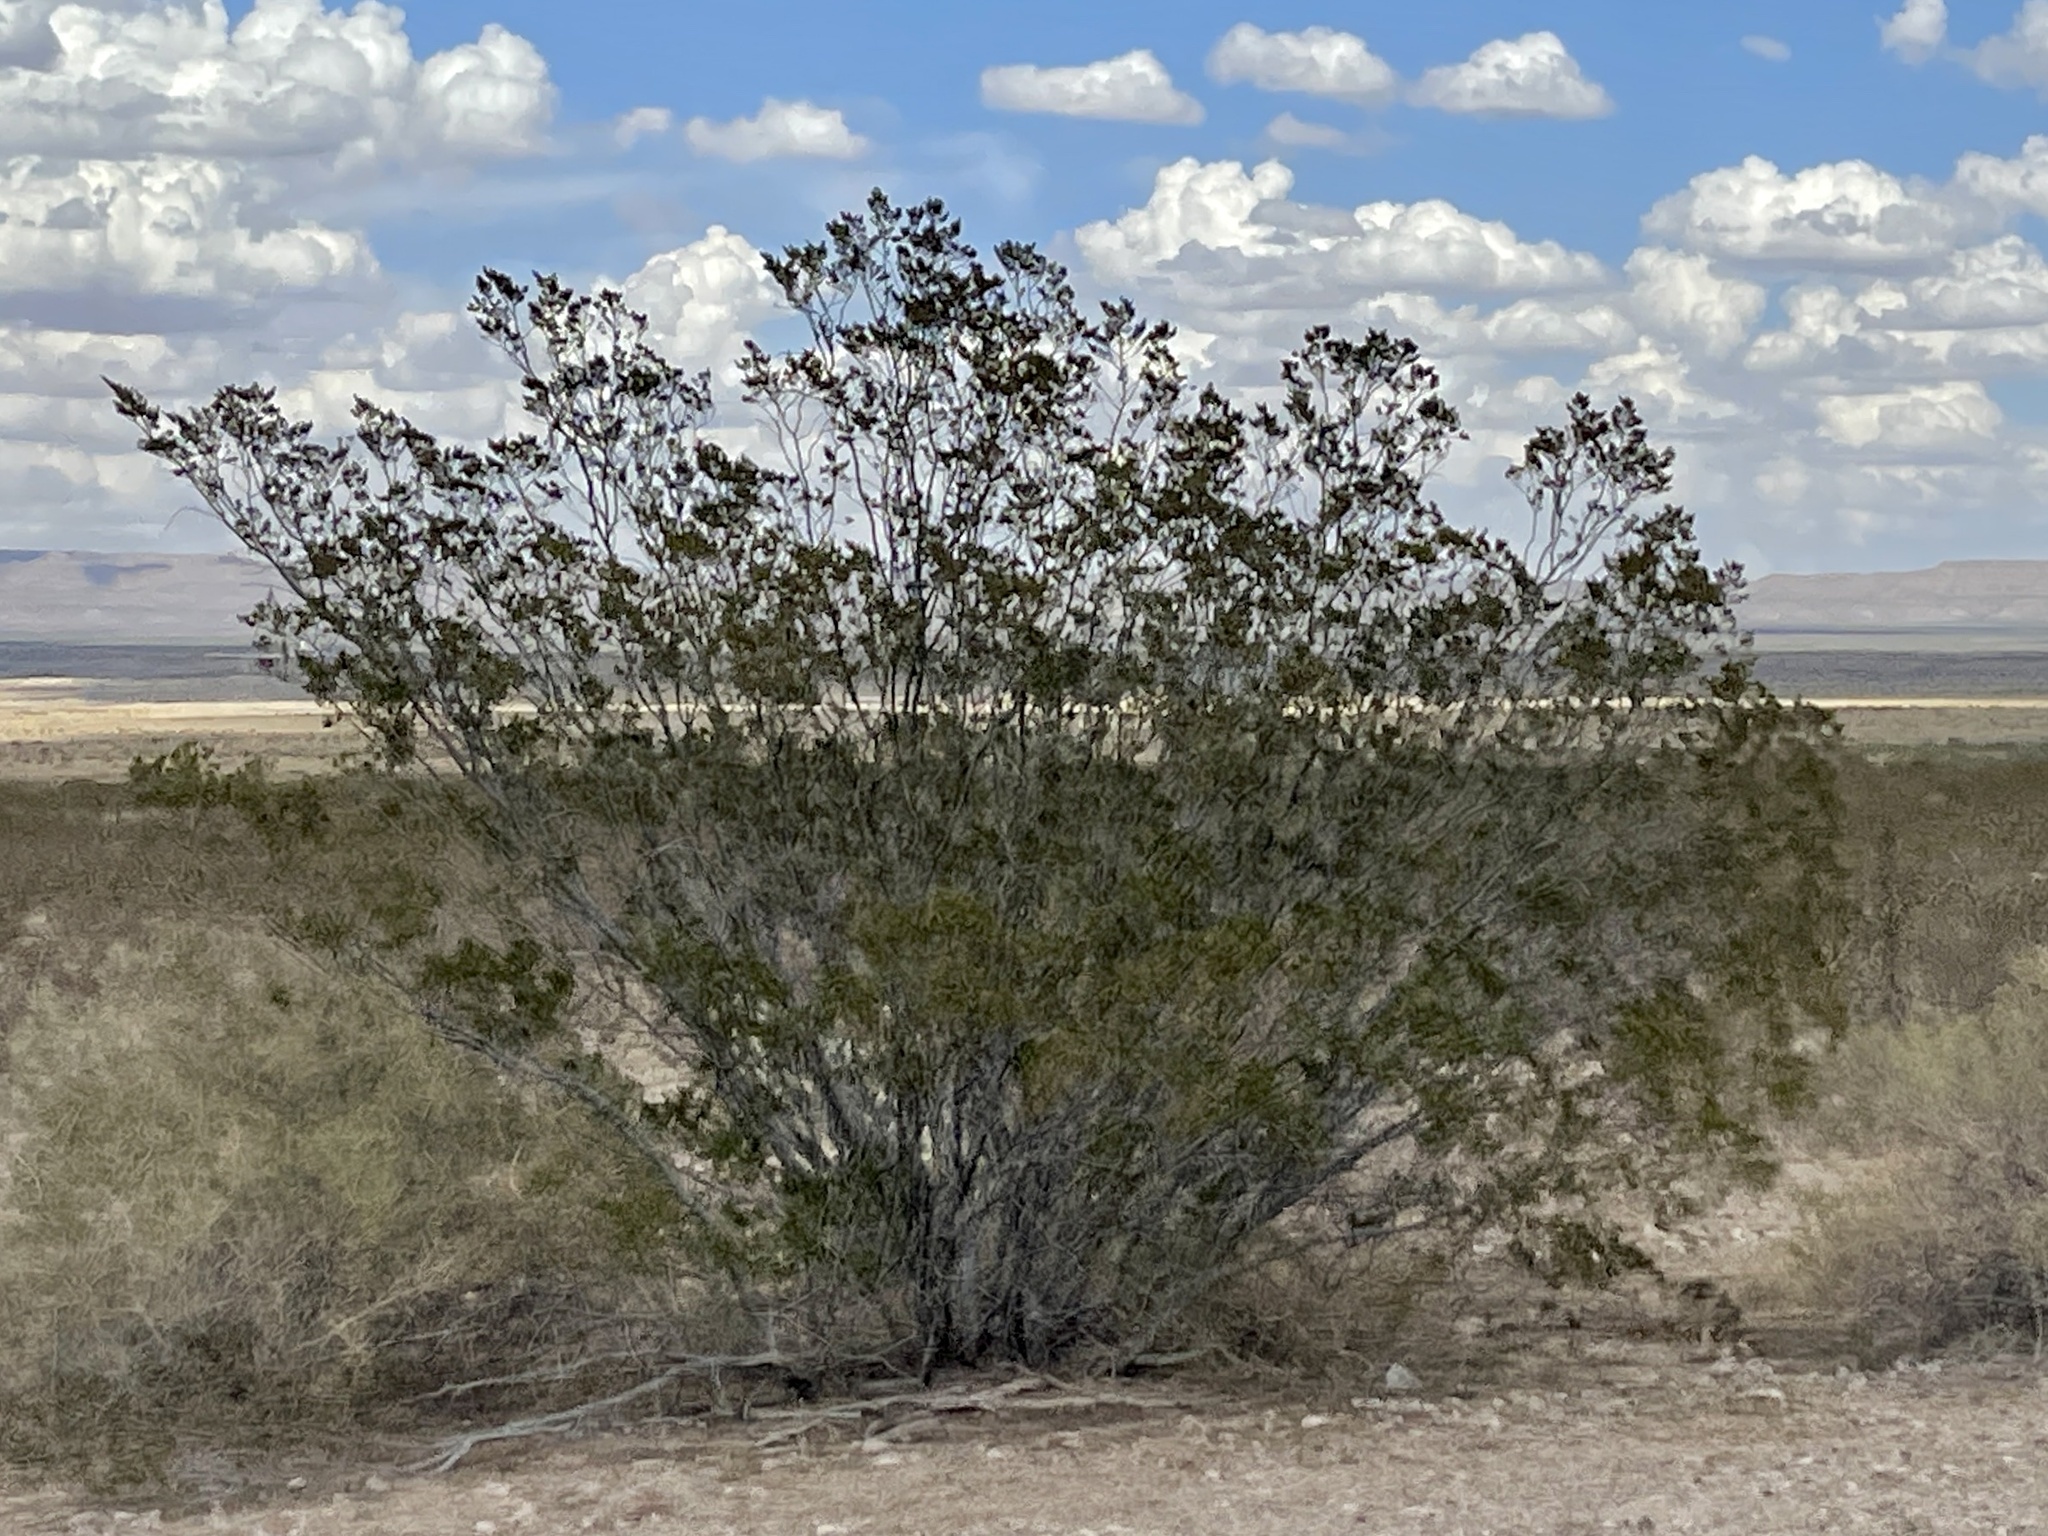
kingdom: Plantae
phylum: Tracheophyta
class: Magnoliopsida
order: Zygophyllales
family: Zygophyllaceae
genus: Larrea
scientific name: Larrea tridentata
